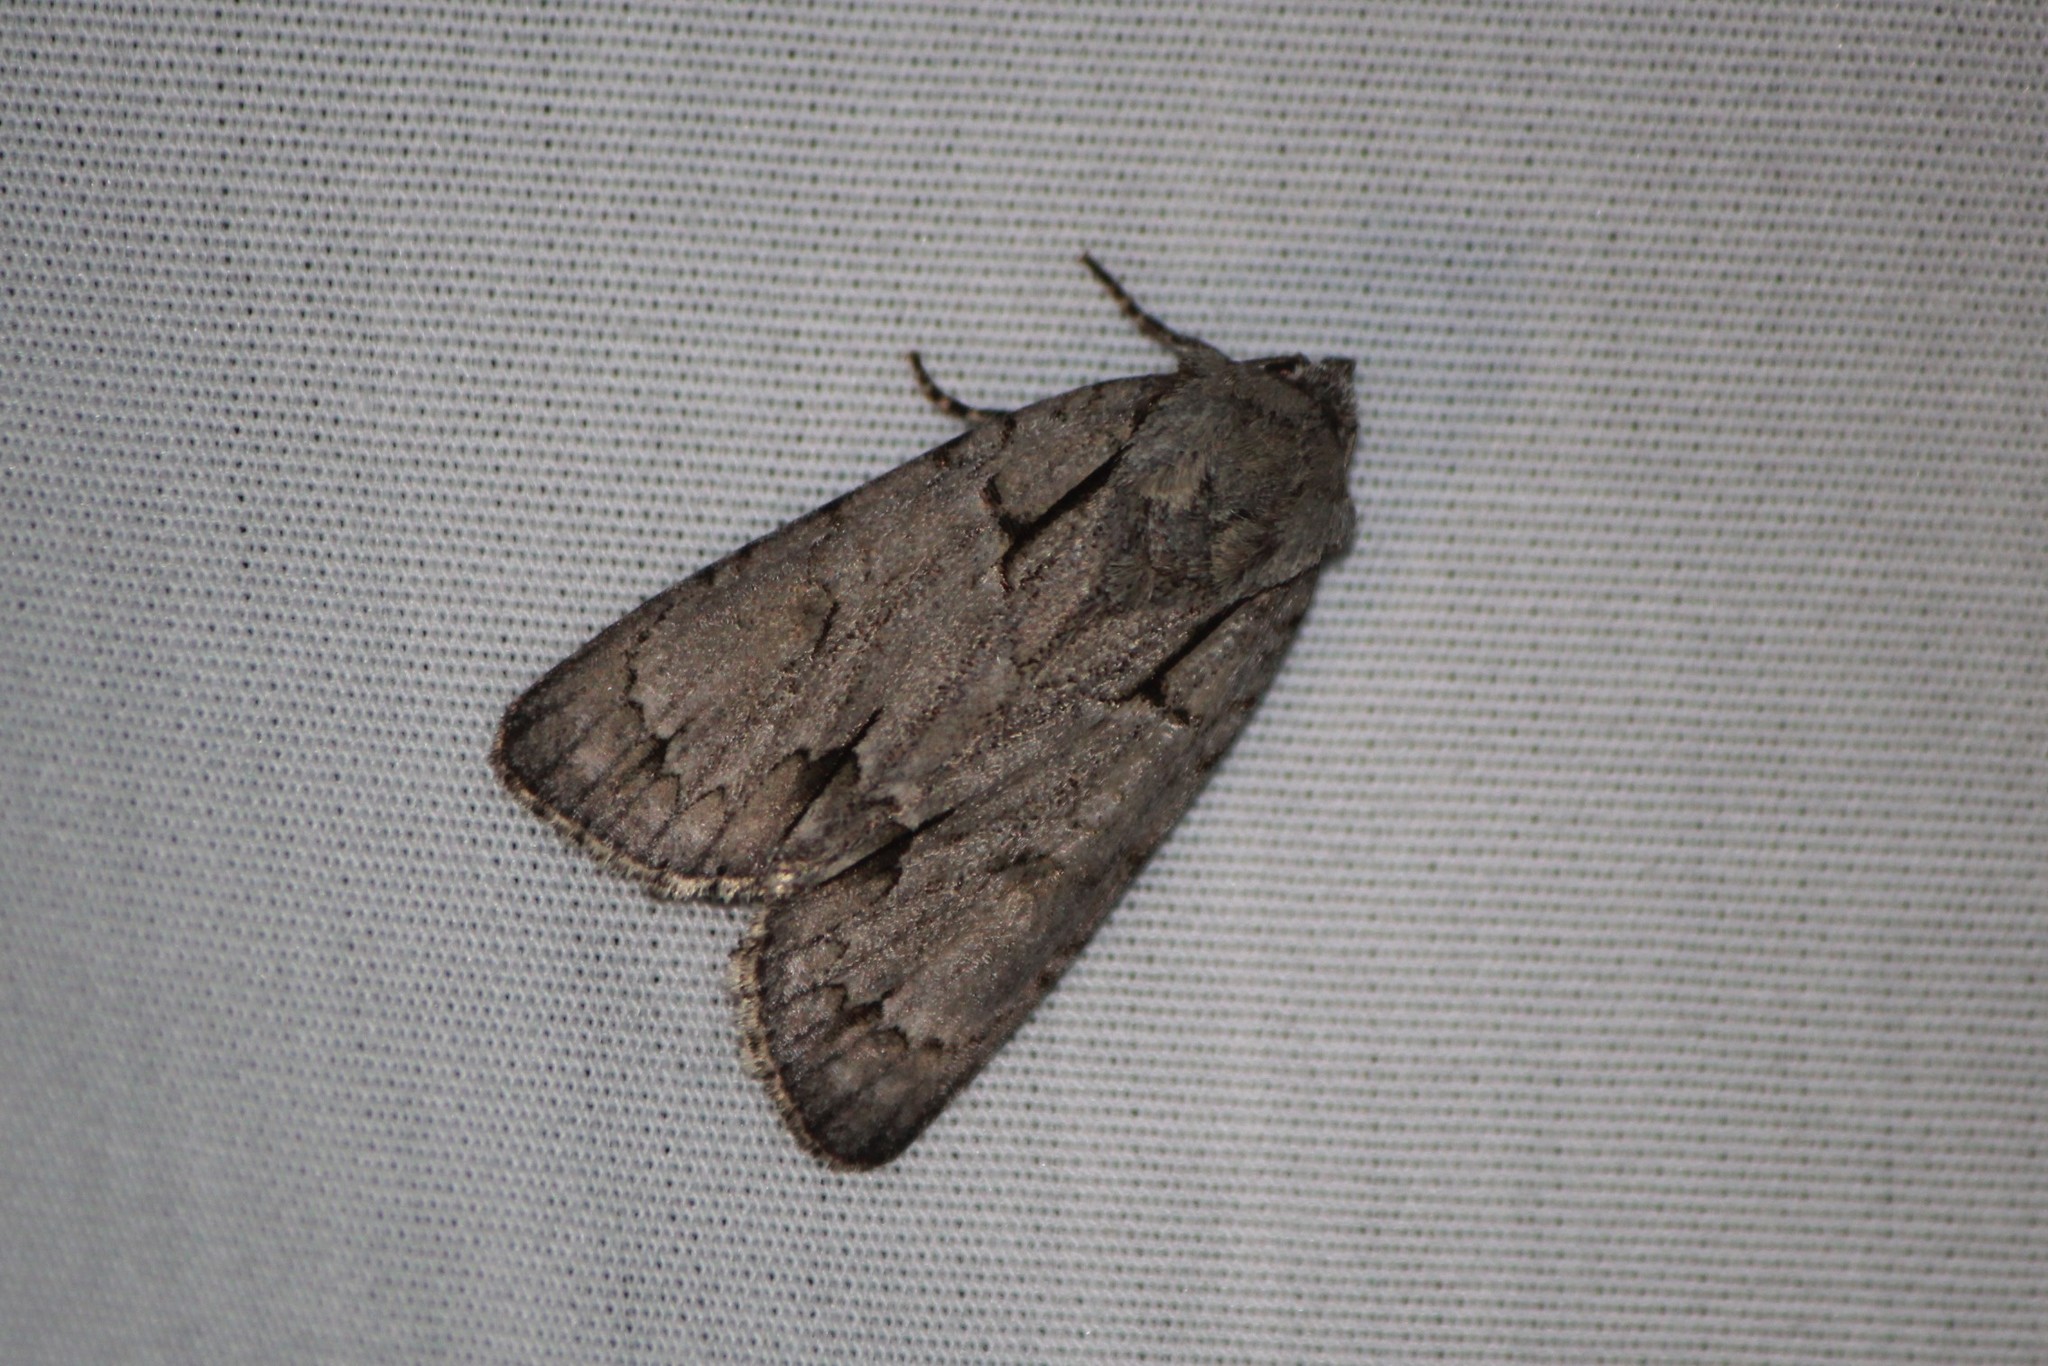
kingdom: Animalia
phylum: Arthropoda
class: Insecta
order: Lepidoptera
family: Noctuidae
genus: Acronicta
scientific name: Acronicta interrupta
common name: Interrupted dagger
